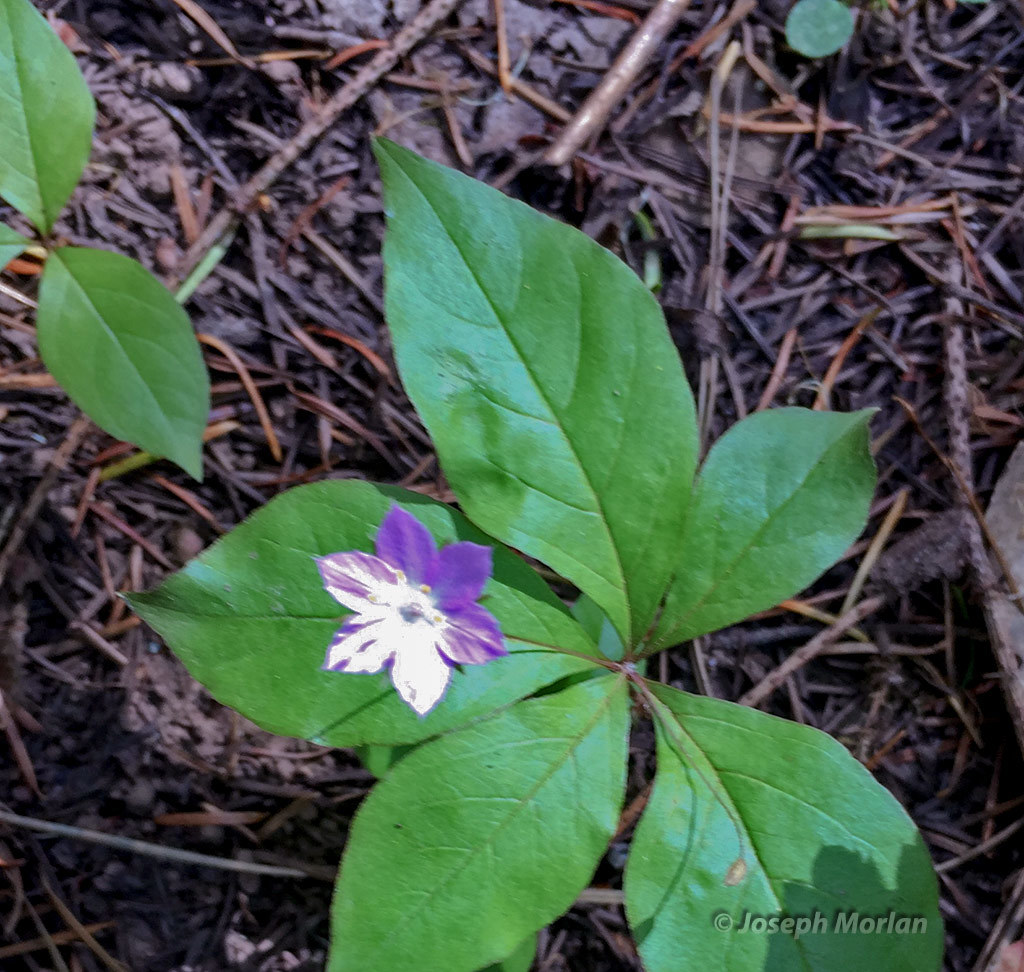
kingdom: Plantae
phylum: Tracheophyta
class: Magnoliopsida
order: Ericales
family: Primulaceae
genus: Lysimachia
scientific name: Lysimachia latifolia
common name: Pacific starflower
